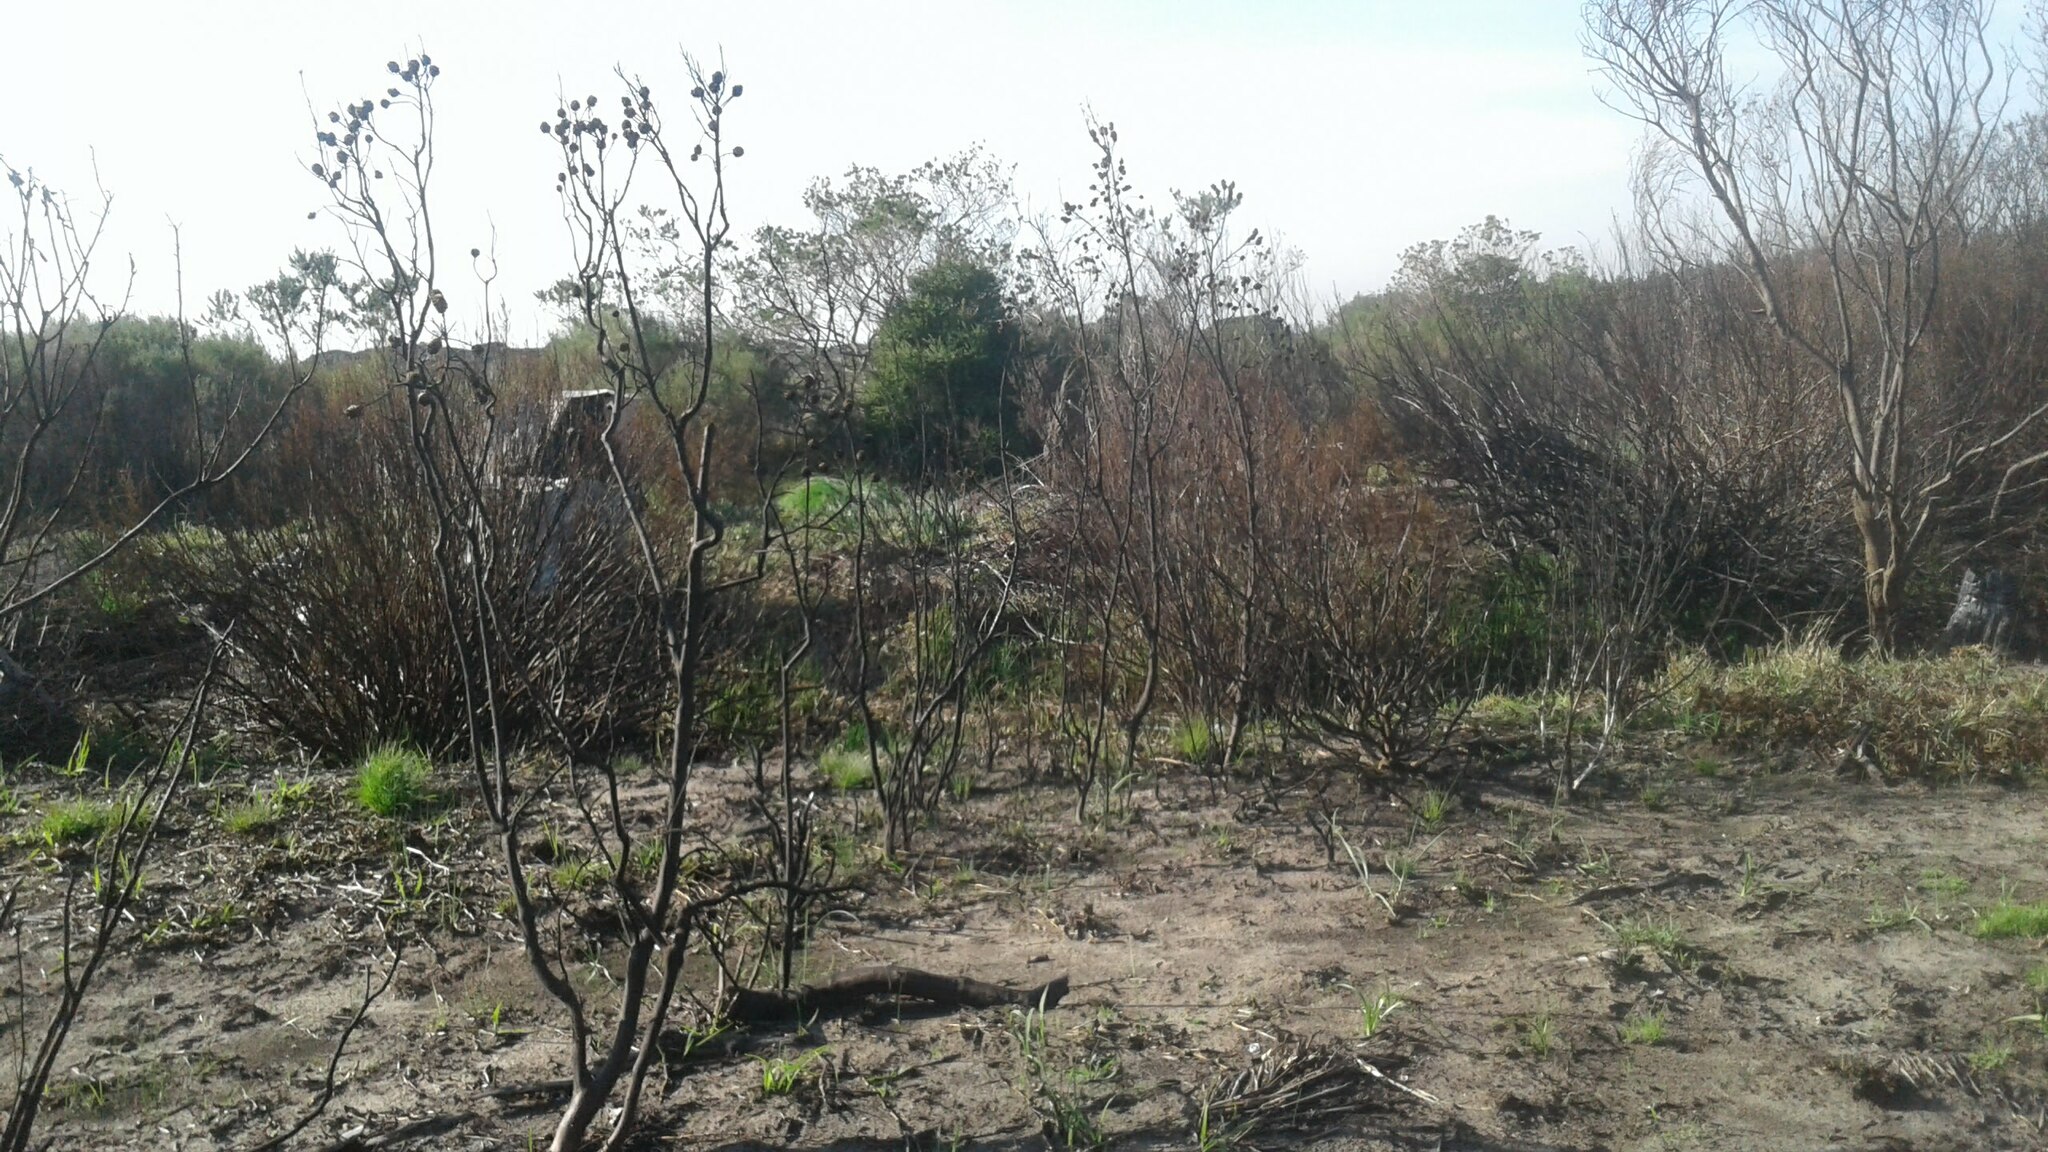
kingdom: Plantae
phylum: Tracheophyta
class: Magnoliopsida
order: Proteales
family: Proteaceae
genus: Leucadendron
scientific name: Leucadendron floridum
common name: Flats conebush
